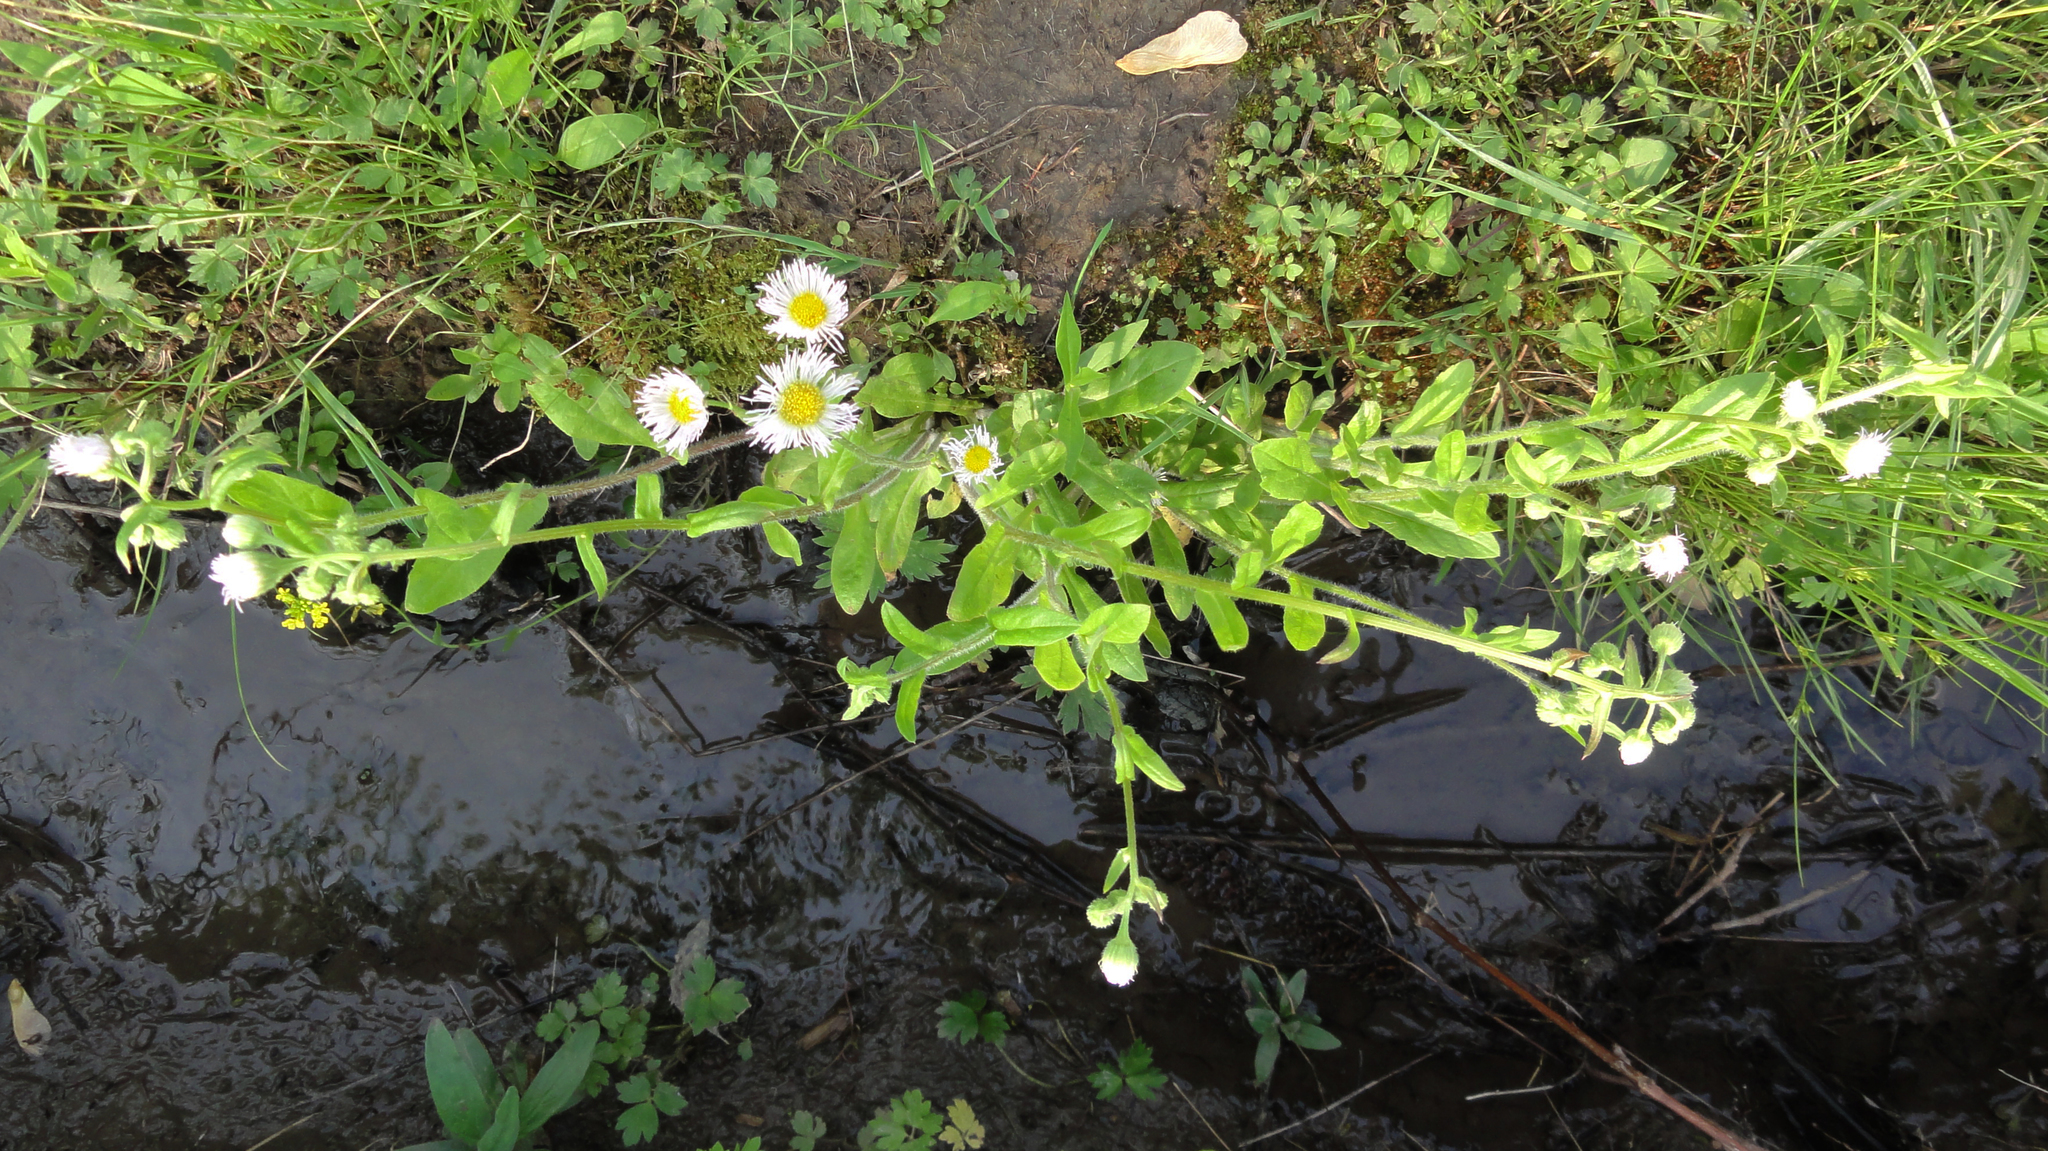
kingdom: Plantae
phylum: Tracheophyta
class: Magnoliopsida
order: Asterales
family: Asteraceae
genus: Erigeron
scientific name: Erigeron philadelphicus
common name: Robin's-plantain
